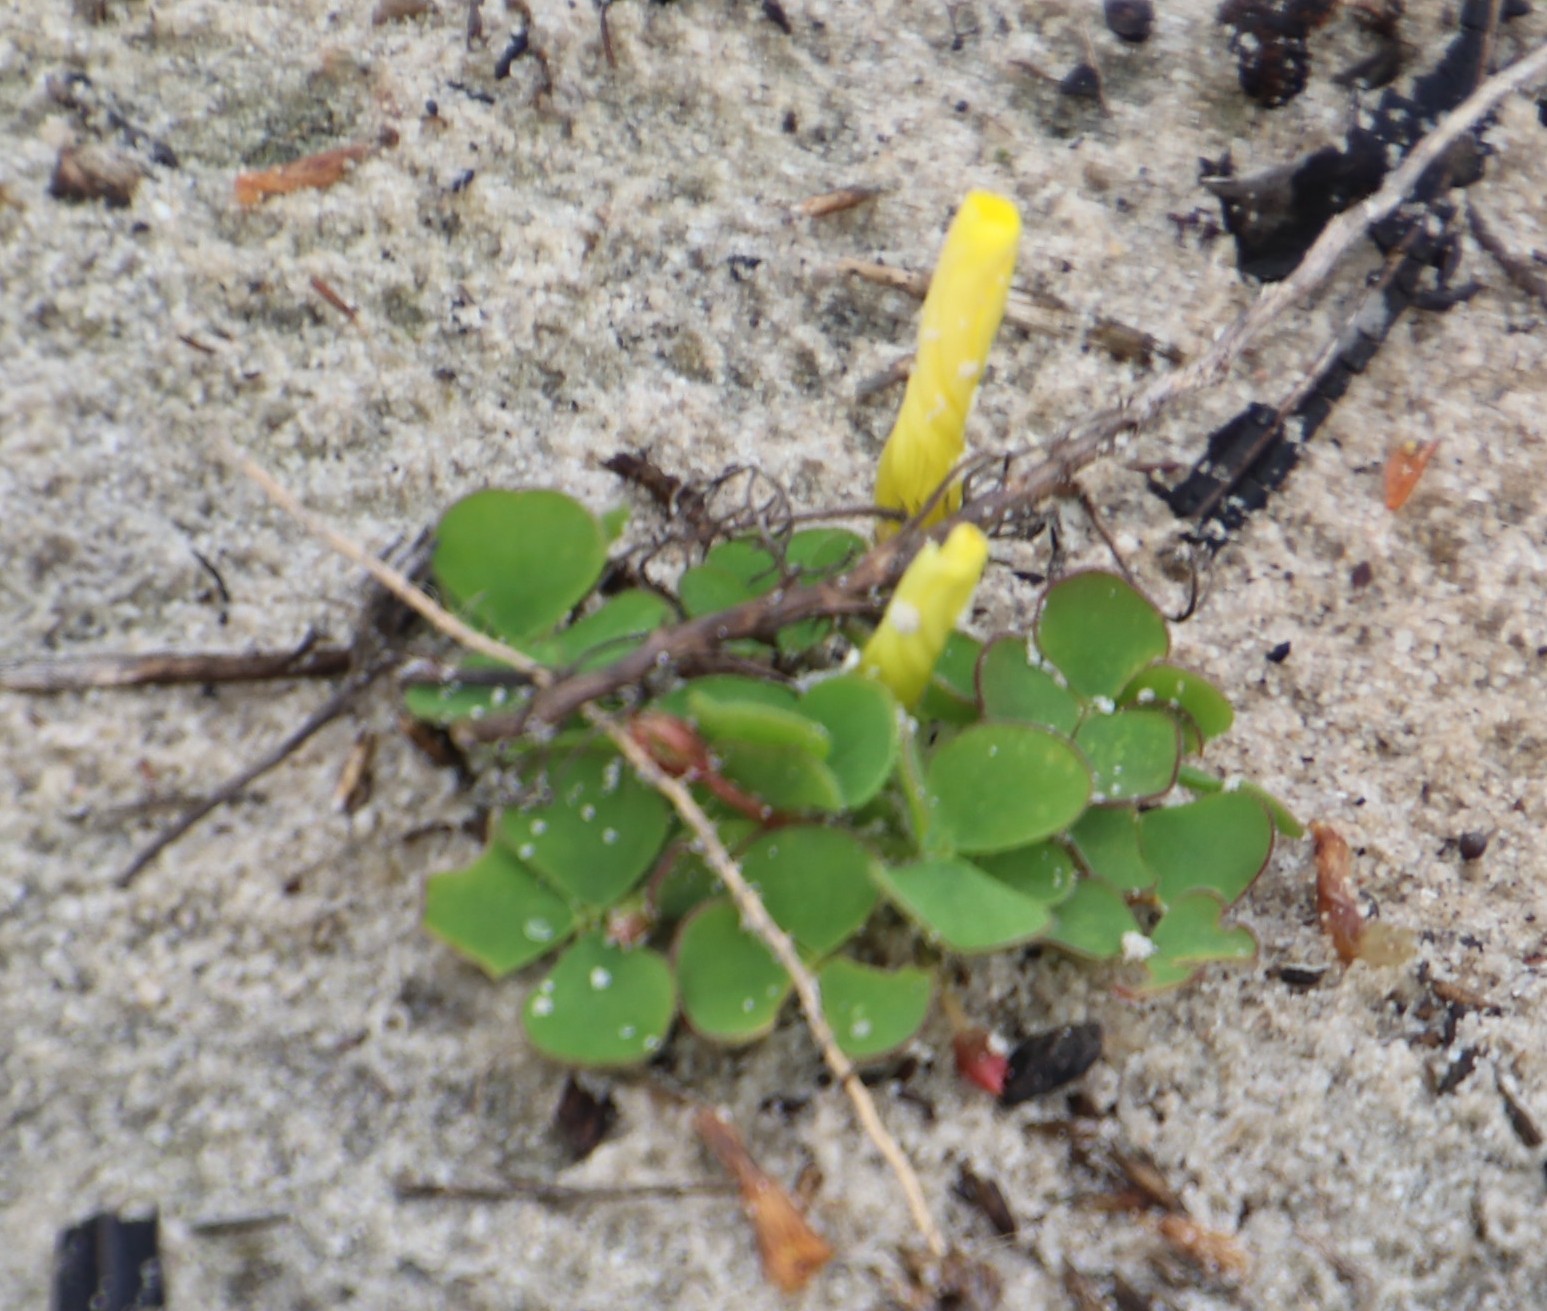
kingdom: Plantae
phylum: Tracheophyta
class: Magnoliopsida
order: Oxalidales
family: Oxalidaceae
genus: Oxalis
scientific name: Oxalis luteola
